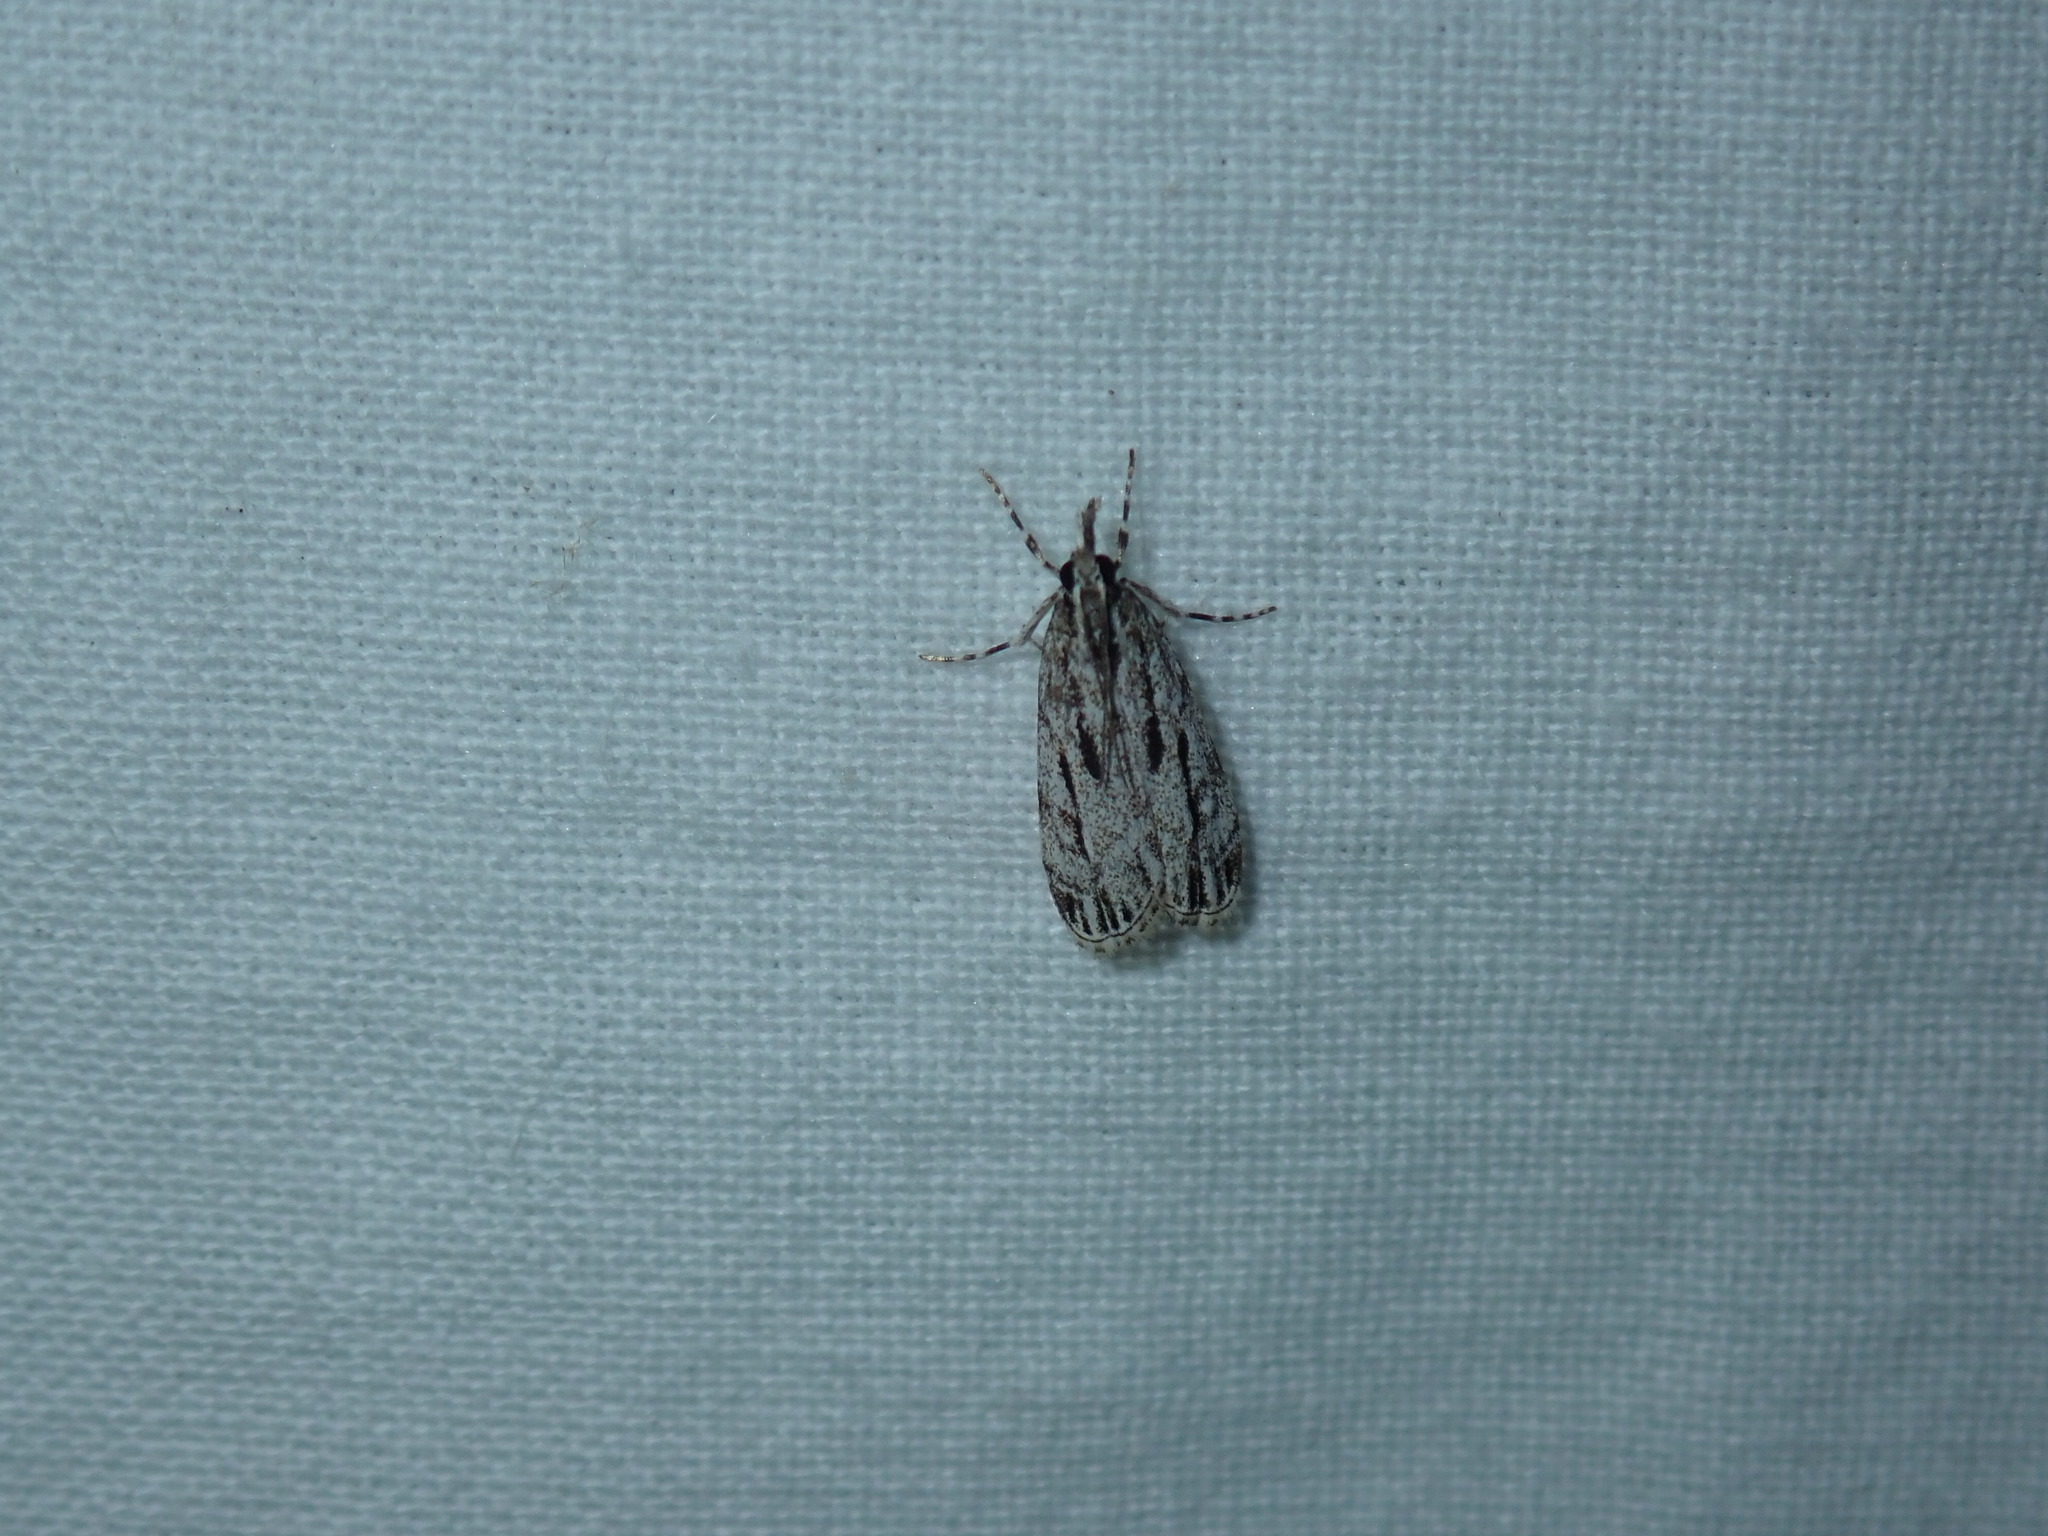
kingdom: Animalia
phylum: Arthropoda
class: Insecta
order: Lepidoptera
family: Crambidae
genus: Eudonia
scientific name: Eudonia strigalis
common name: Striped eudonia moth
